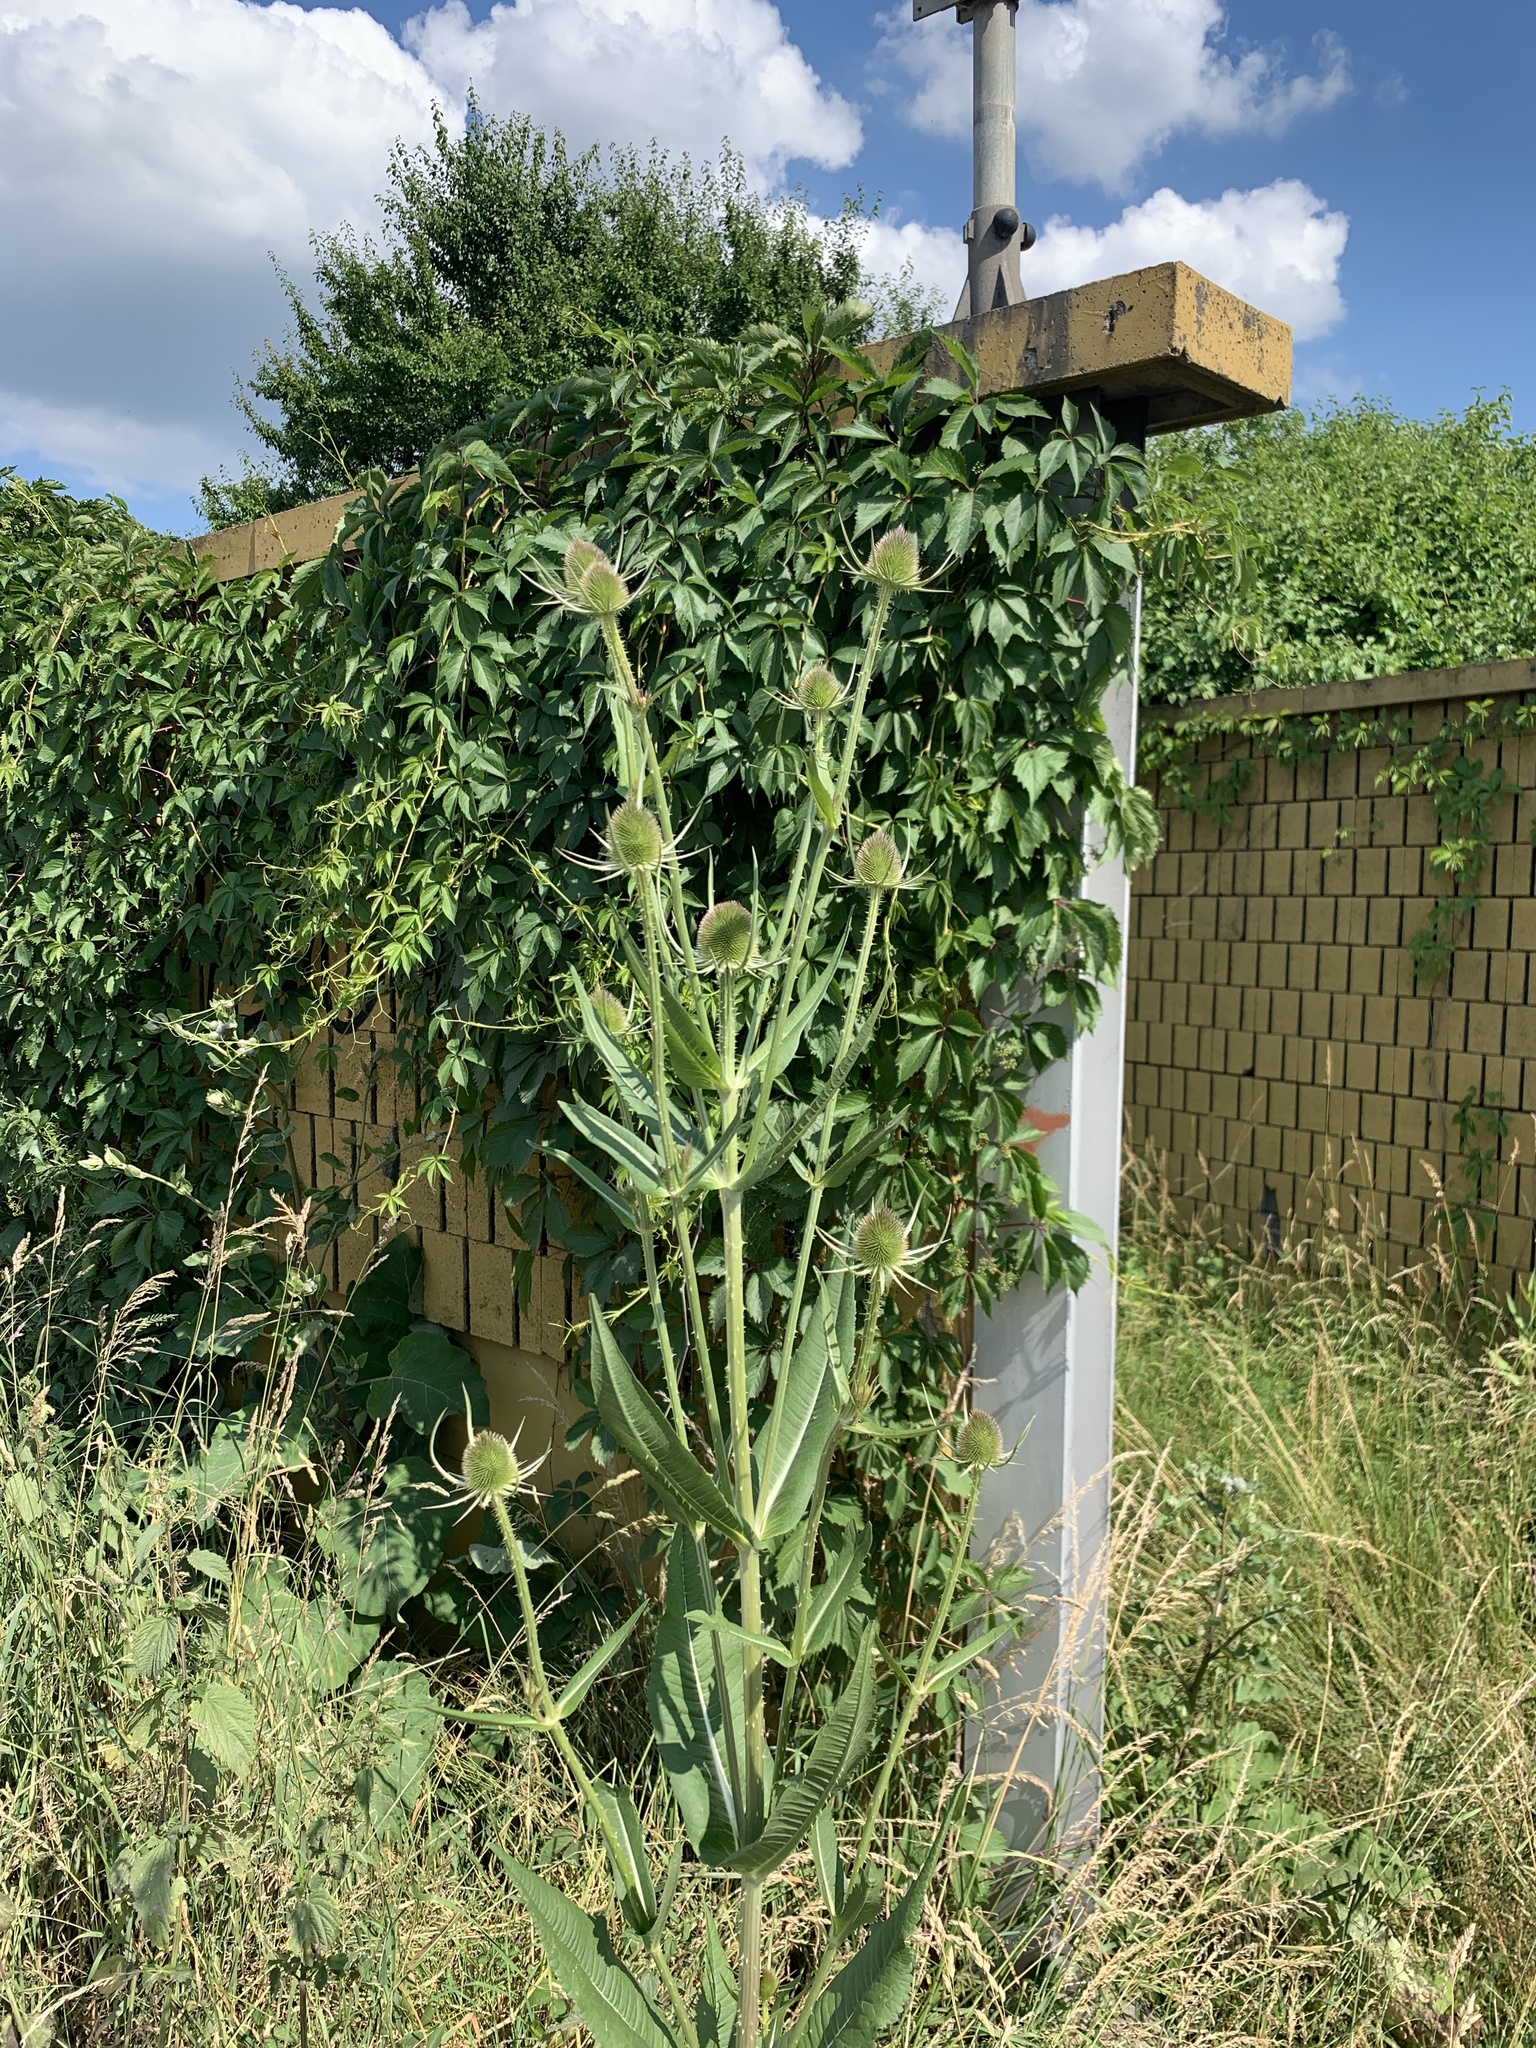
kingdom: Plantae
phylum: Tracheophyta
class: Magnoliopsida
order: Dipsacales
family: Caprifoliaceae
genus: Dipsacus
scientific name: Dipsacus fullonum
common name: Teasel
